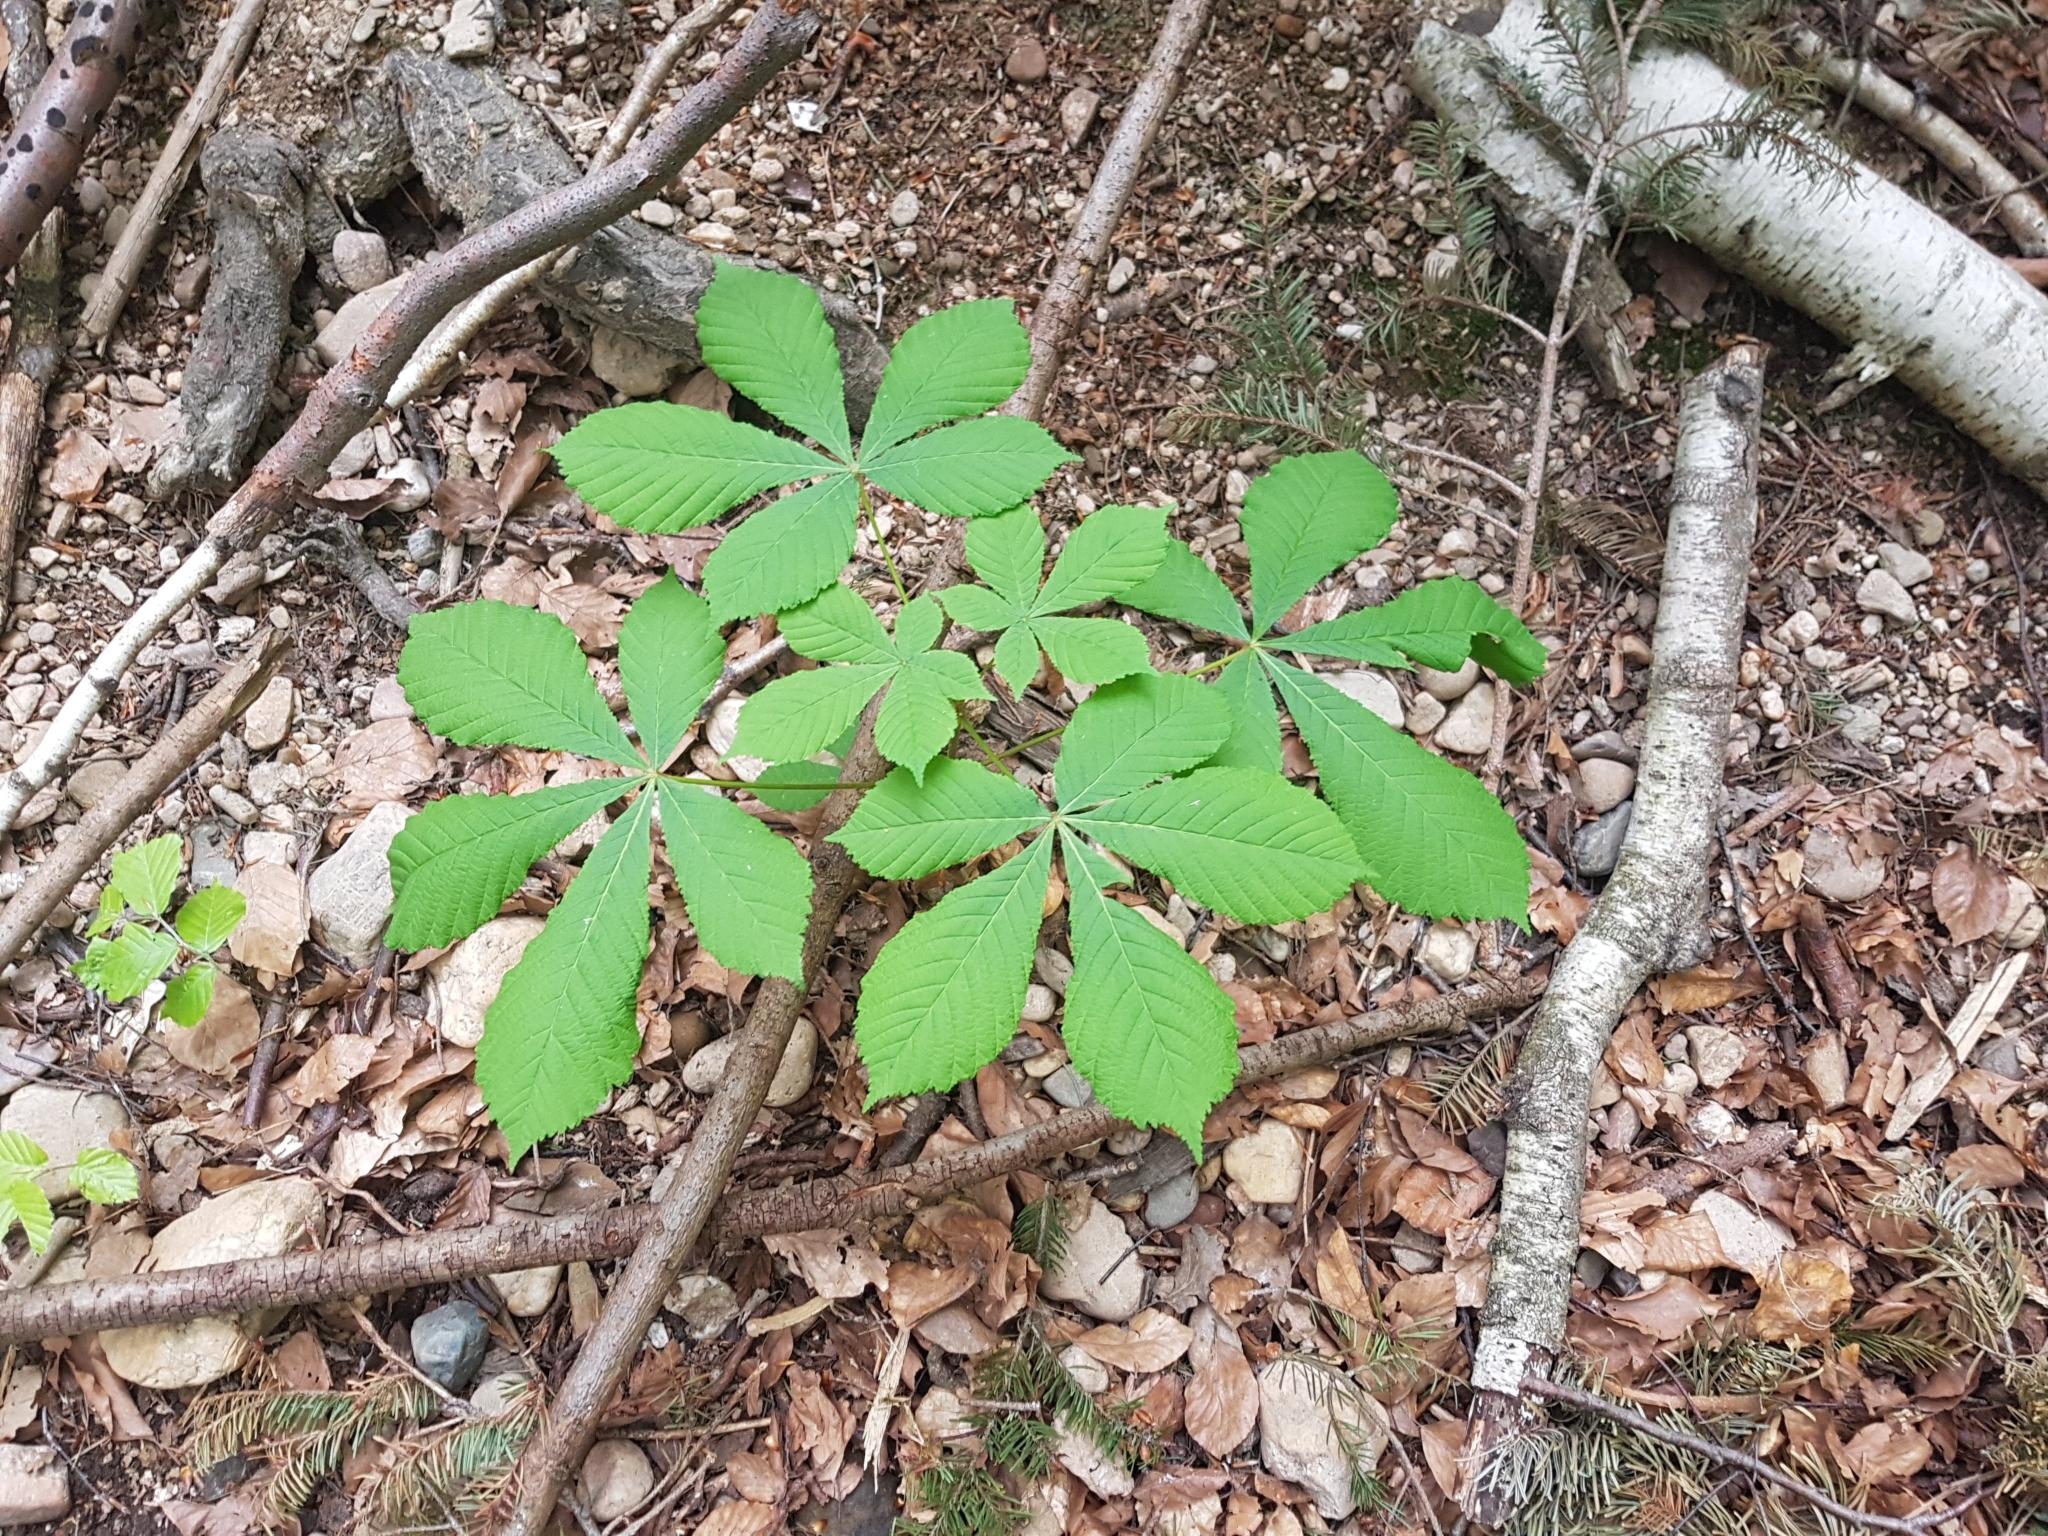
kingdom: Plantae
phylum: Tracheophyta
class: Magnoliopsida
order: Sapindales
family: Sapindaceae
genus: Aesculus
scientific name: Aesculus hippocastanum
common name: Horse-chestnut
